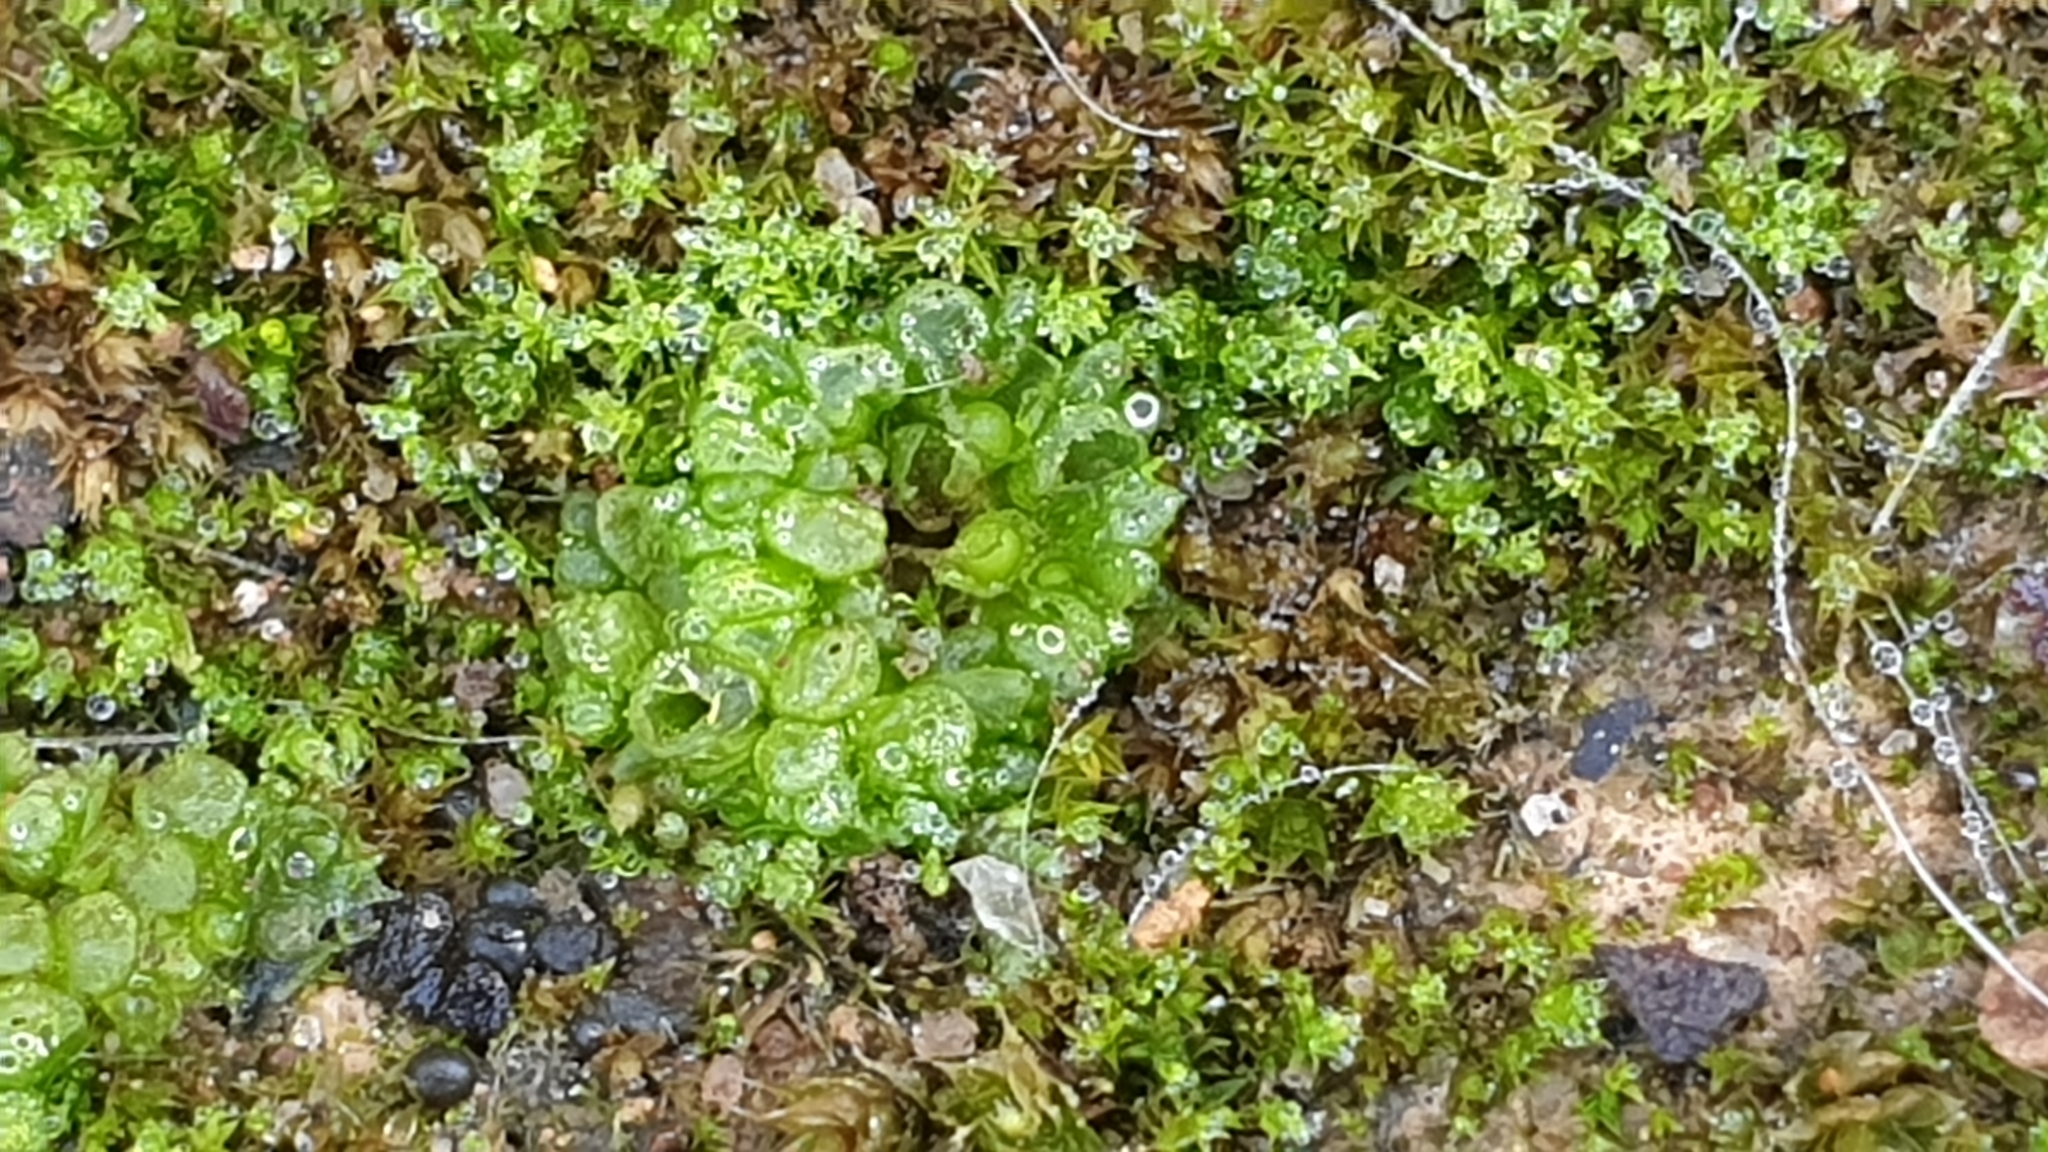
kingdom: Plantae
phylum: Marchantiophyta
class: Marchantiopsida
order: Sphaerocarpales
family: Sphaerocarpaceae
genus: Sphaerocarpos
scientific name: Sphaerocarpos texanus
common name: Texas balloonwort
